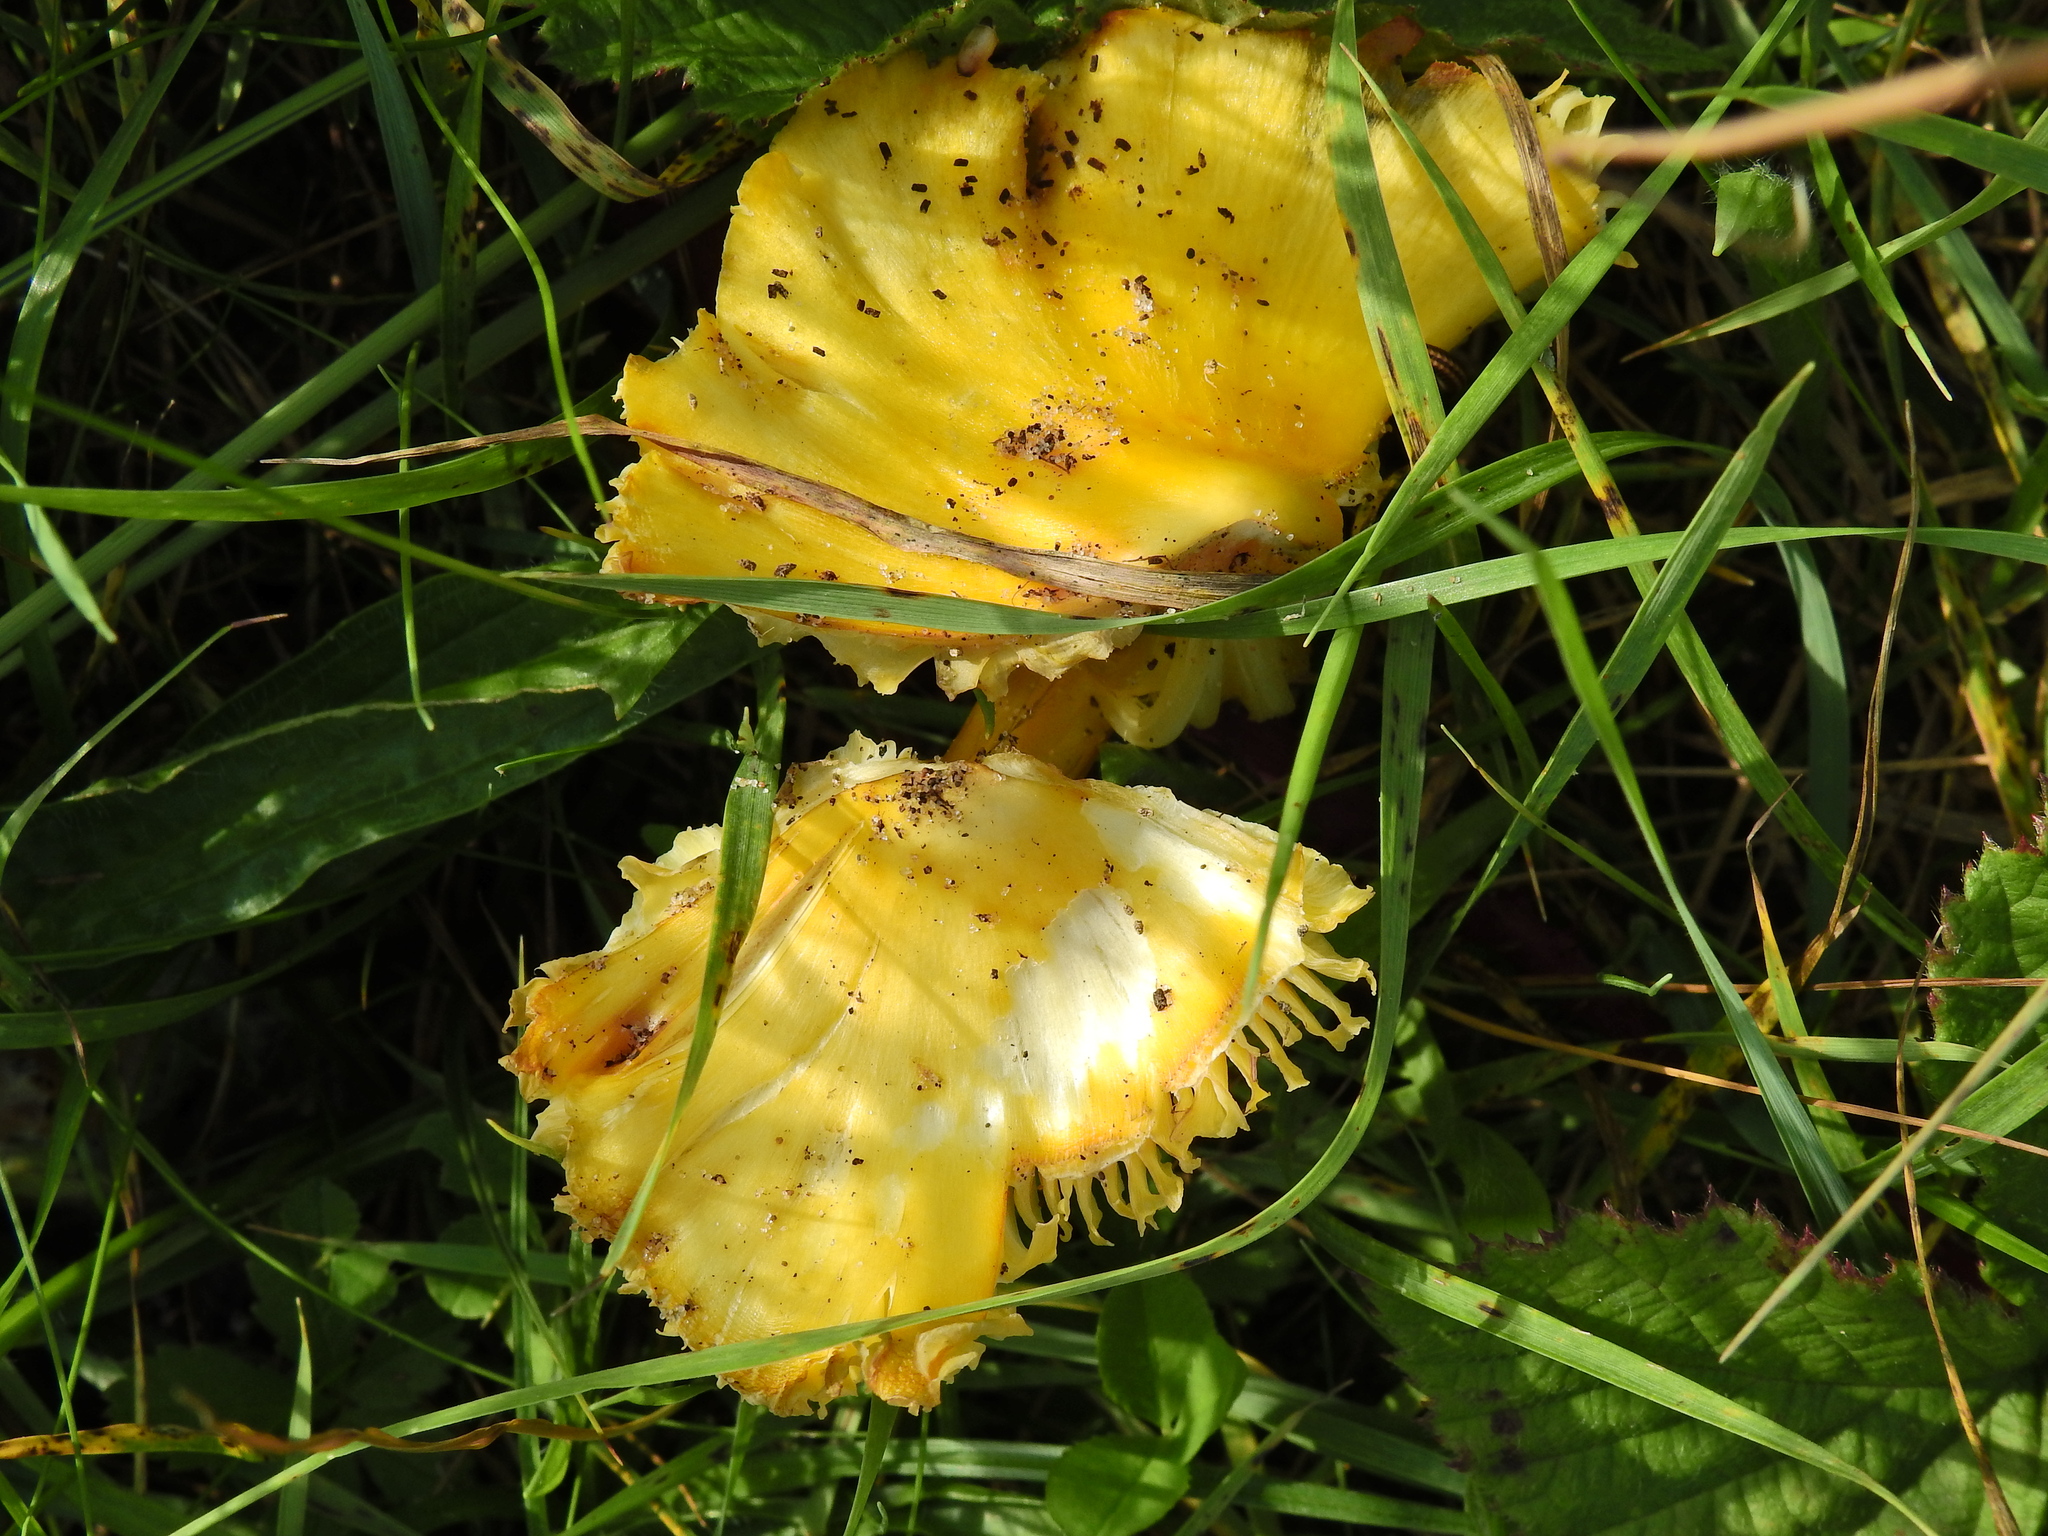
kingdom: Fungi
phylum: Basidiomycota
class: Agaricomycetes
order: Agaricales
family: Hygrophoraceae
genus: Hygrocybe
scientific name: Hygrocybe acutoconica
